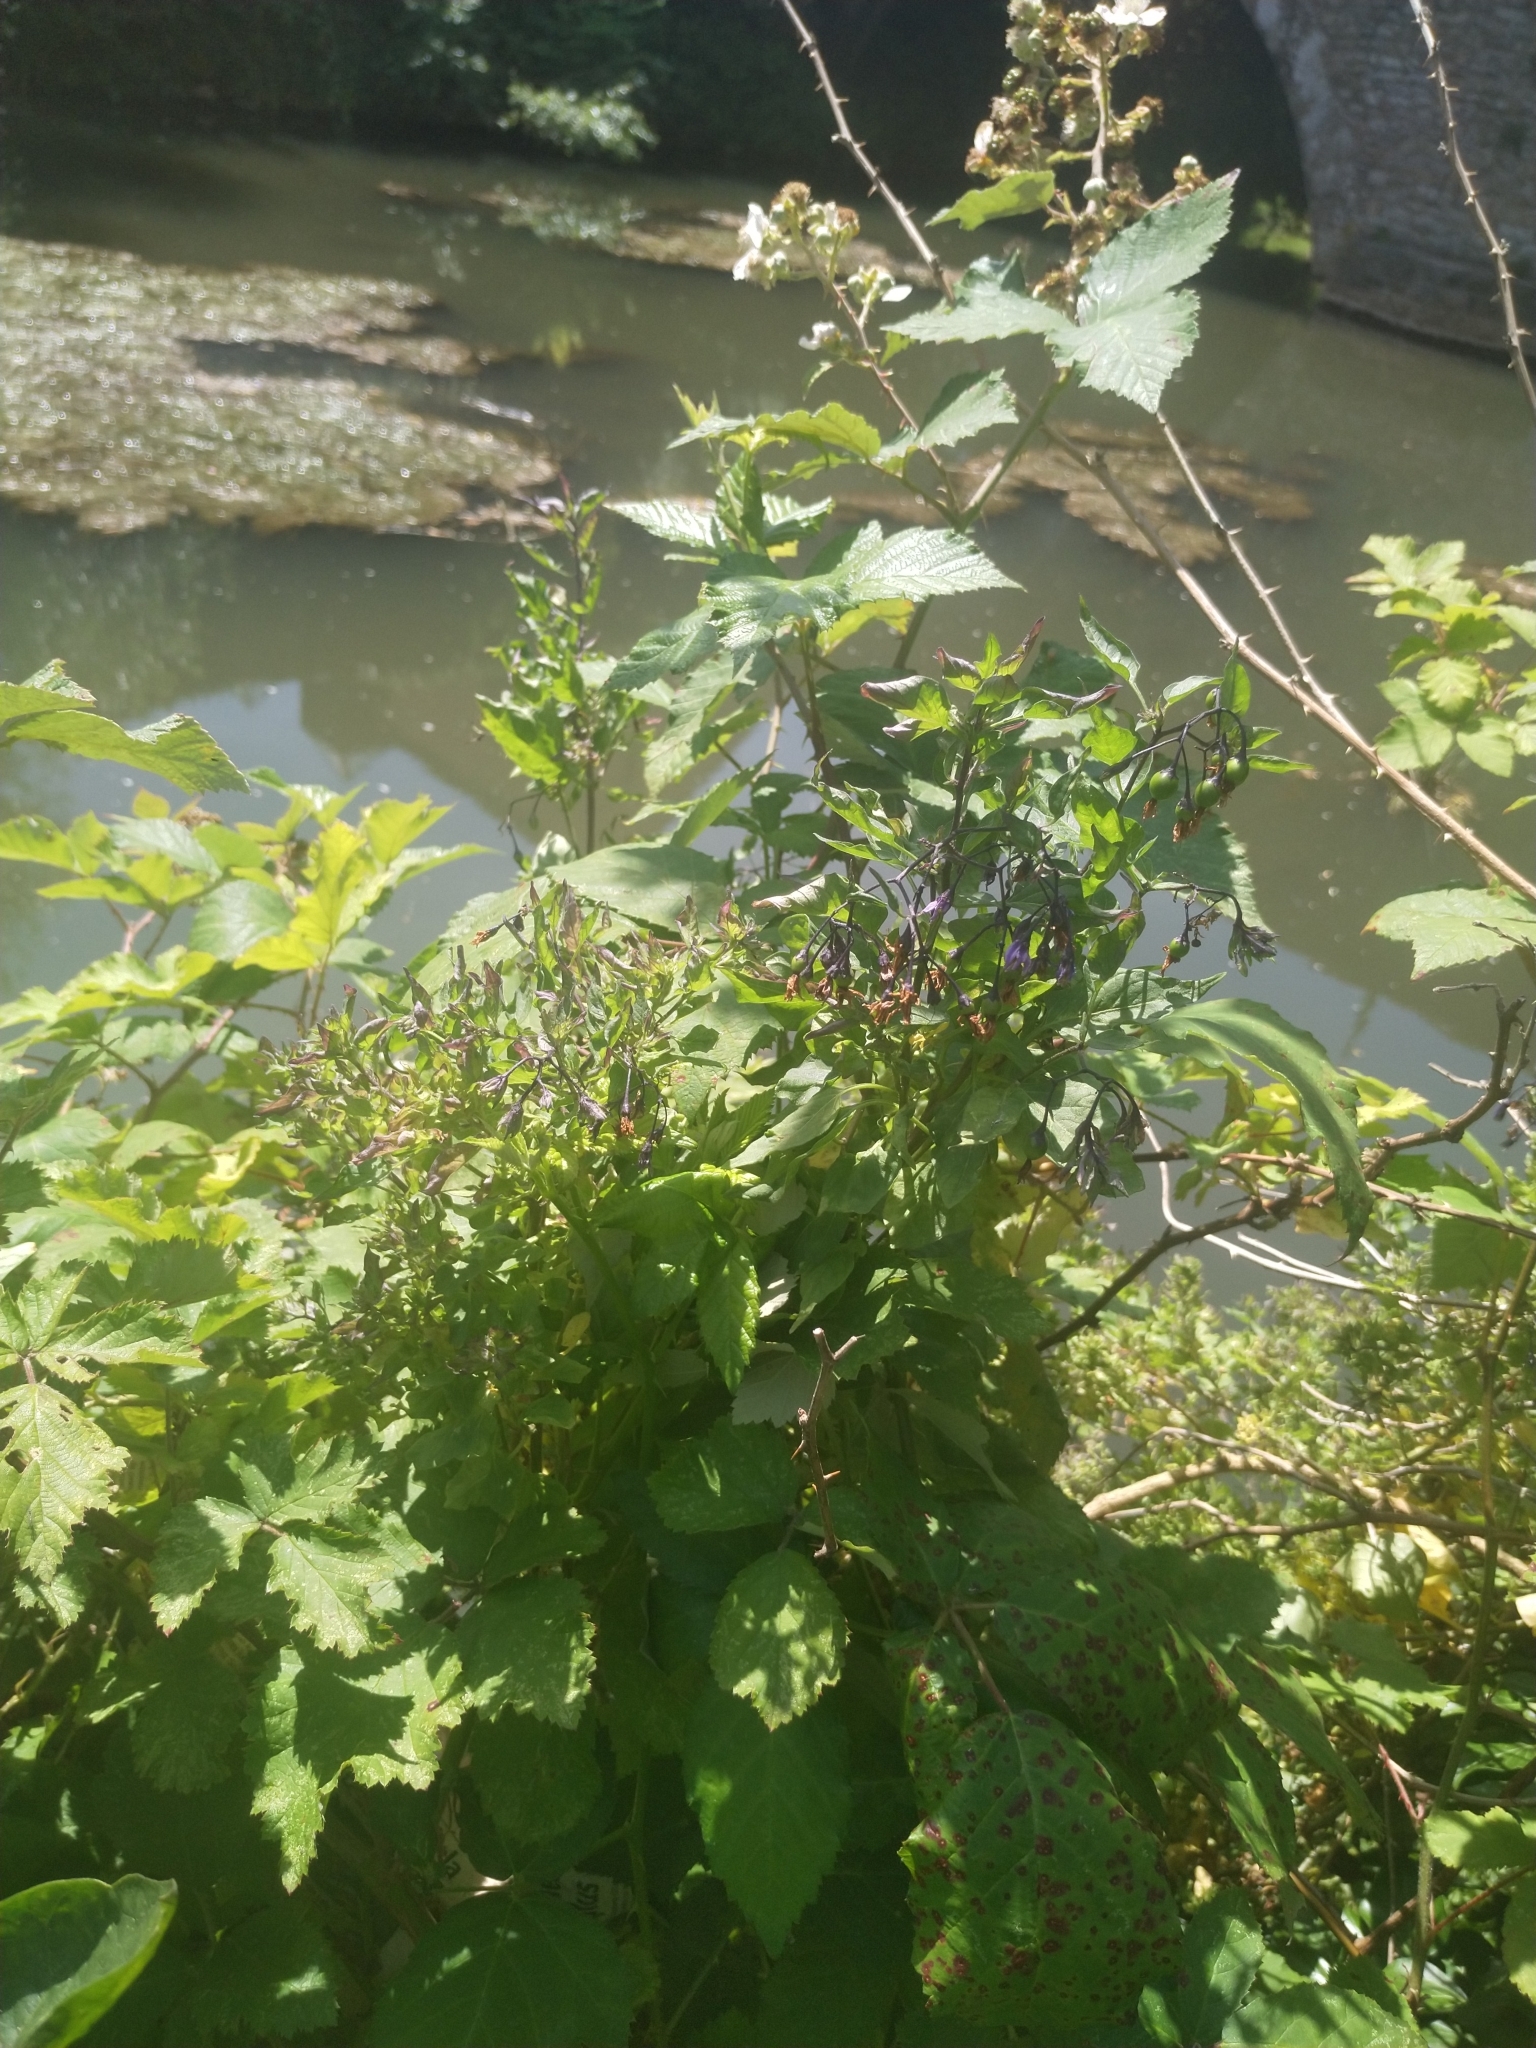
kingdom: Plantae
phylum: Tracheophyta
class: Magnoliopsida
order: Solanales
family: Solanaceae
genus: Solanum
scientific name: Solanum dulcamara
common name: Climbing nightshade
